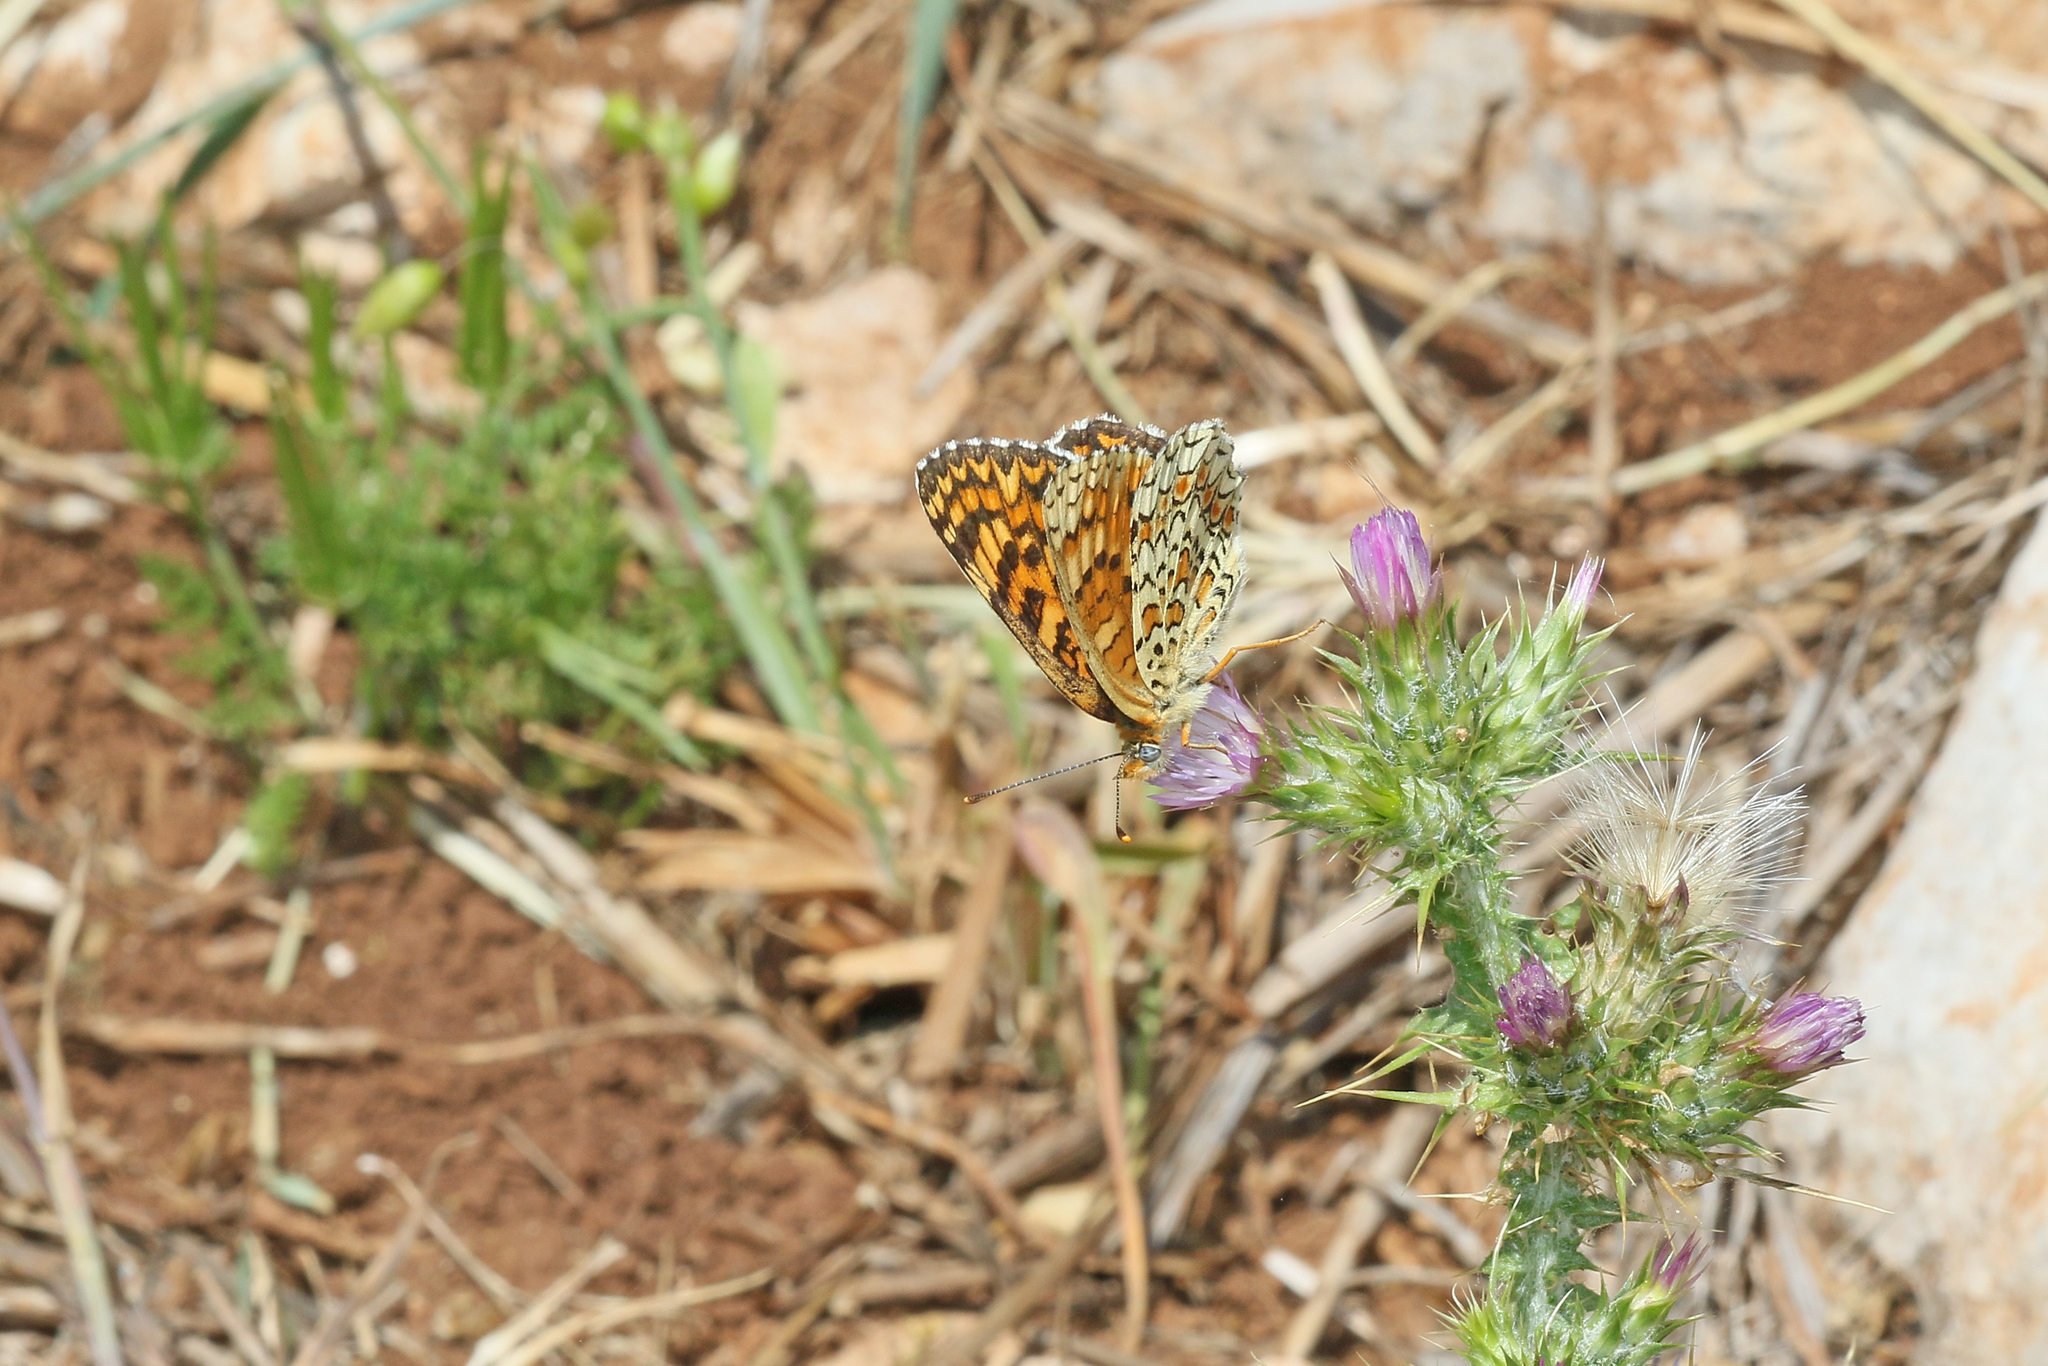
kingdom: Animalia
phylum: Arthropoda
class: Insecta
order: Lepidoptera
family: Nymphalidae
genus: Melitaea
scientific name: Melitaea phoebe
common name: Knapweed fritillary
